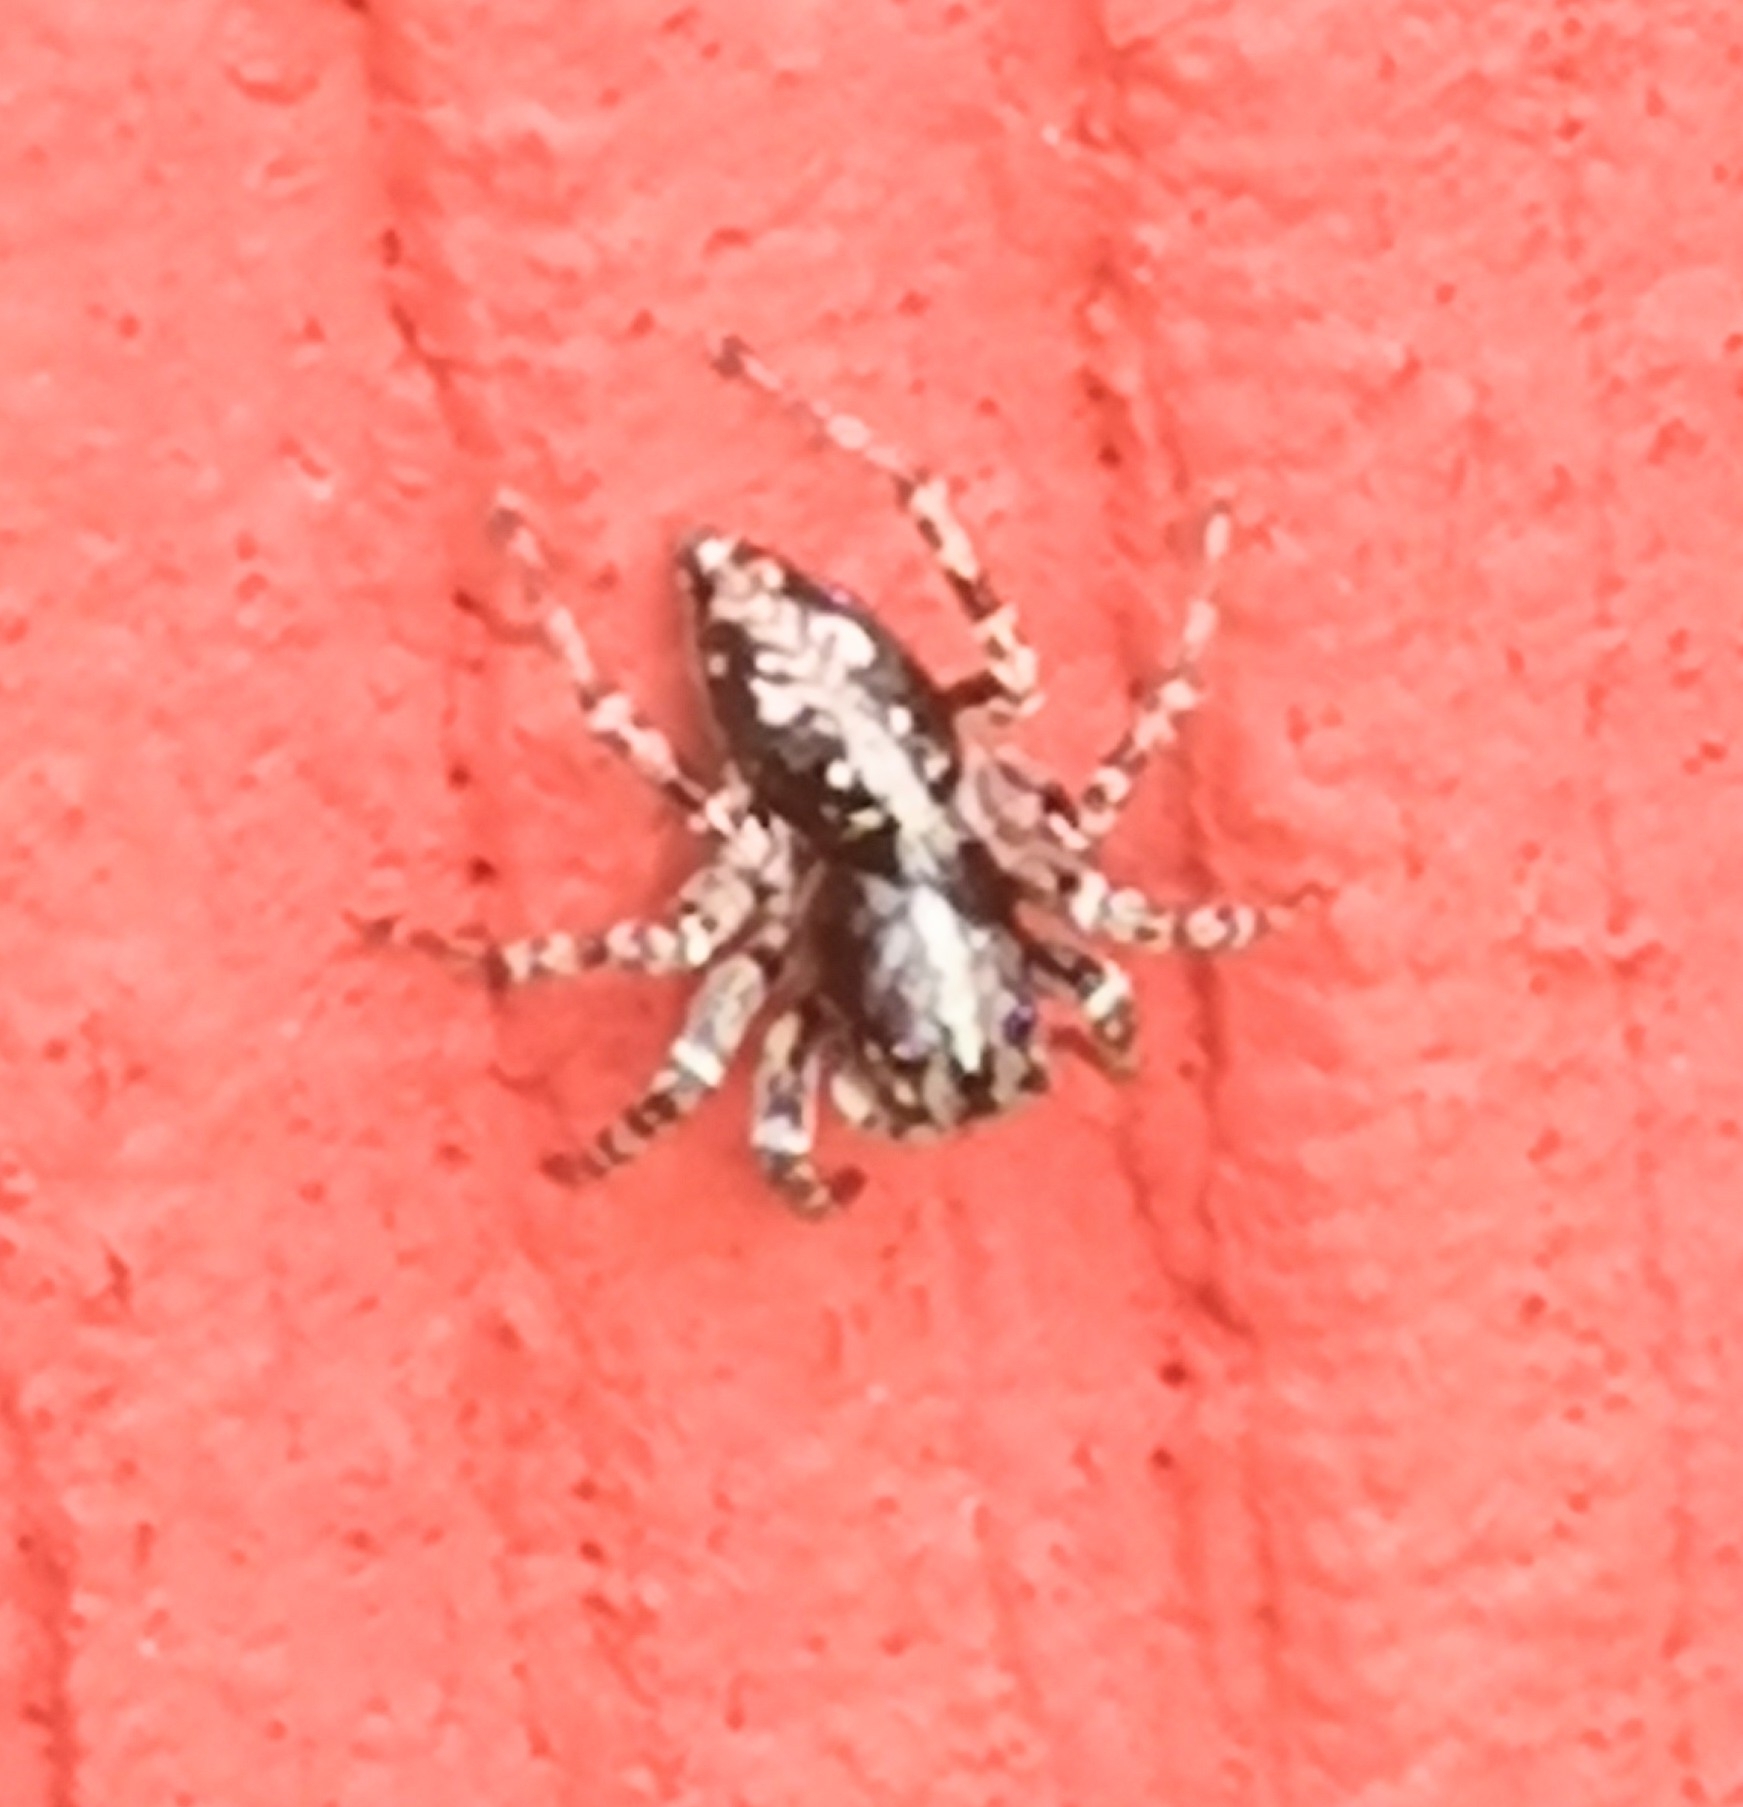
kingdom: Animalia
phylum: Arthropoda
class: Arachnida
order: Araneae
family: Salticidae
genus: Attulus
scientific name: Attulus terebratus
